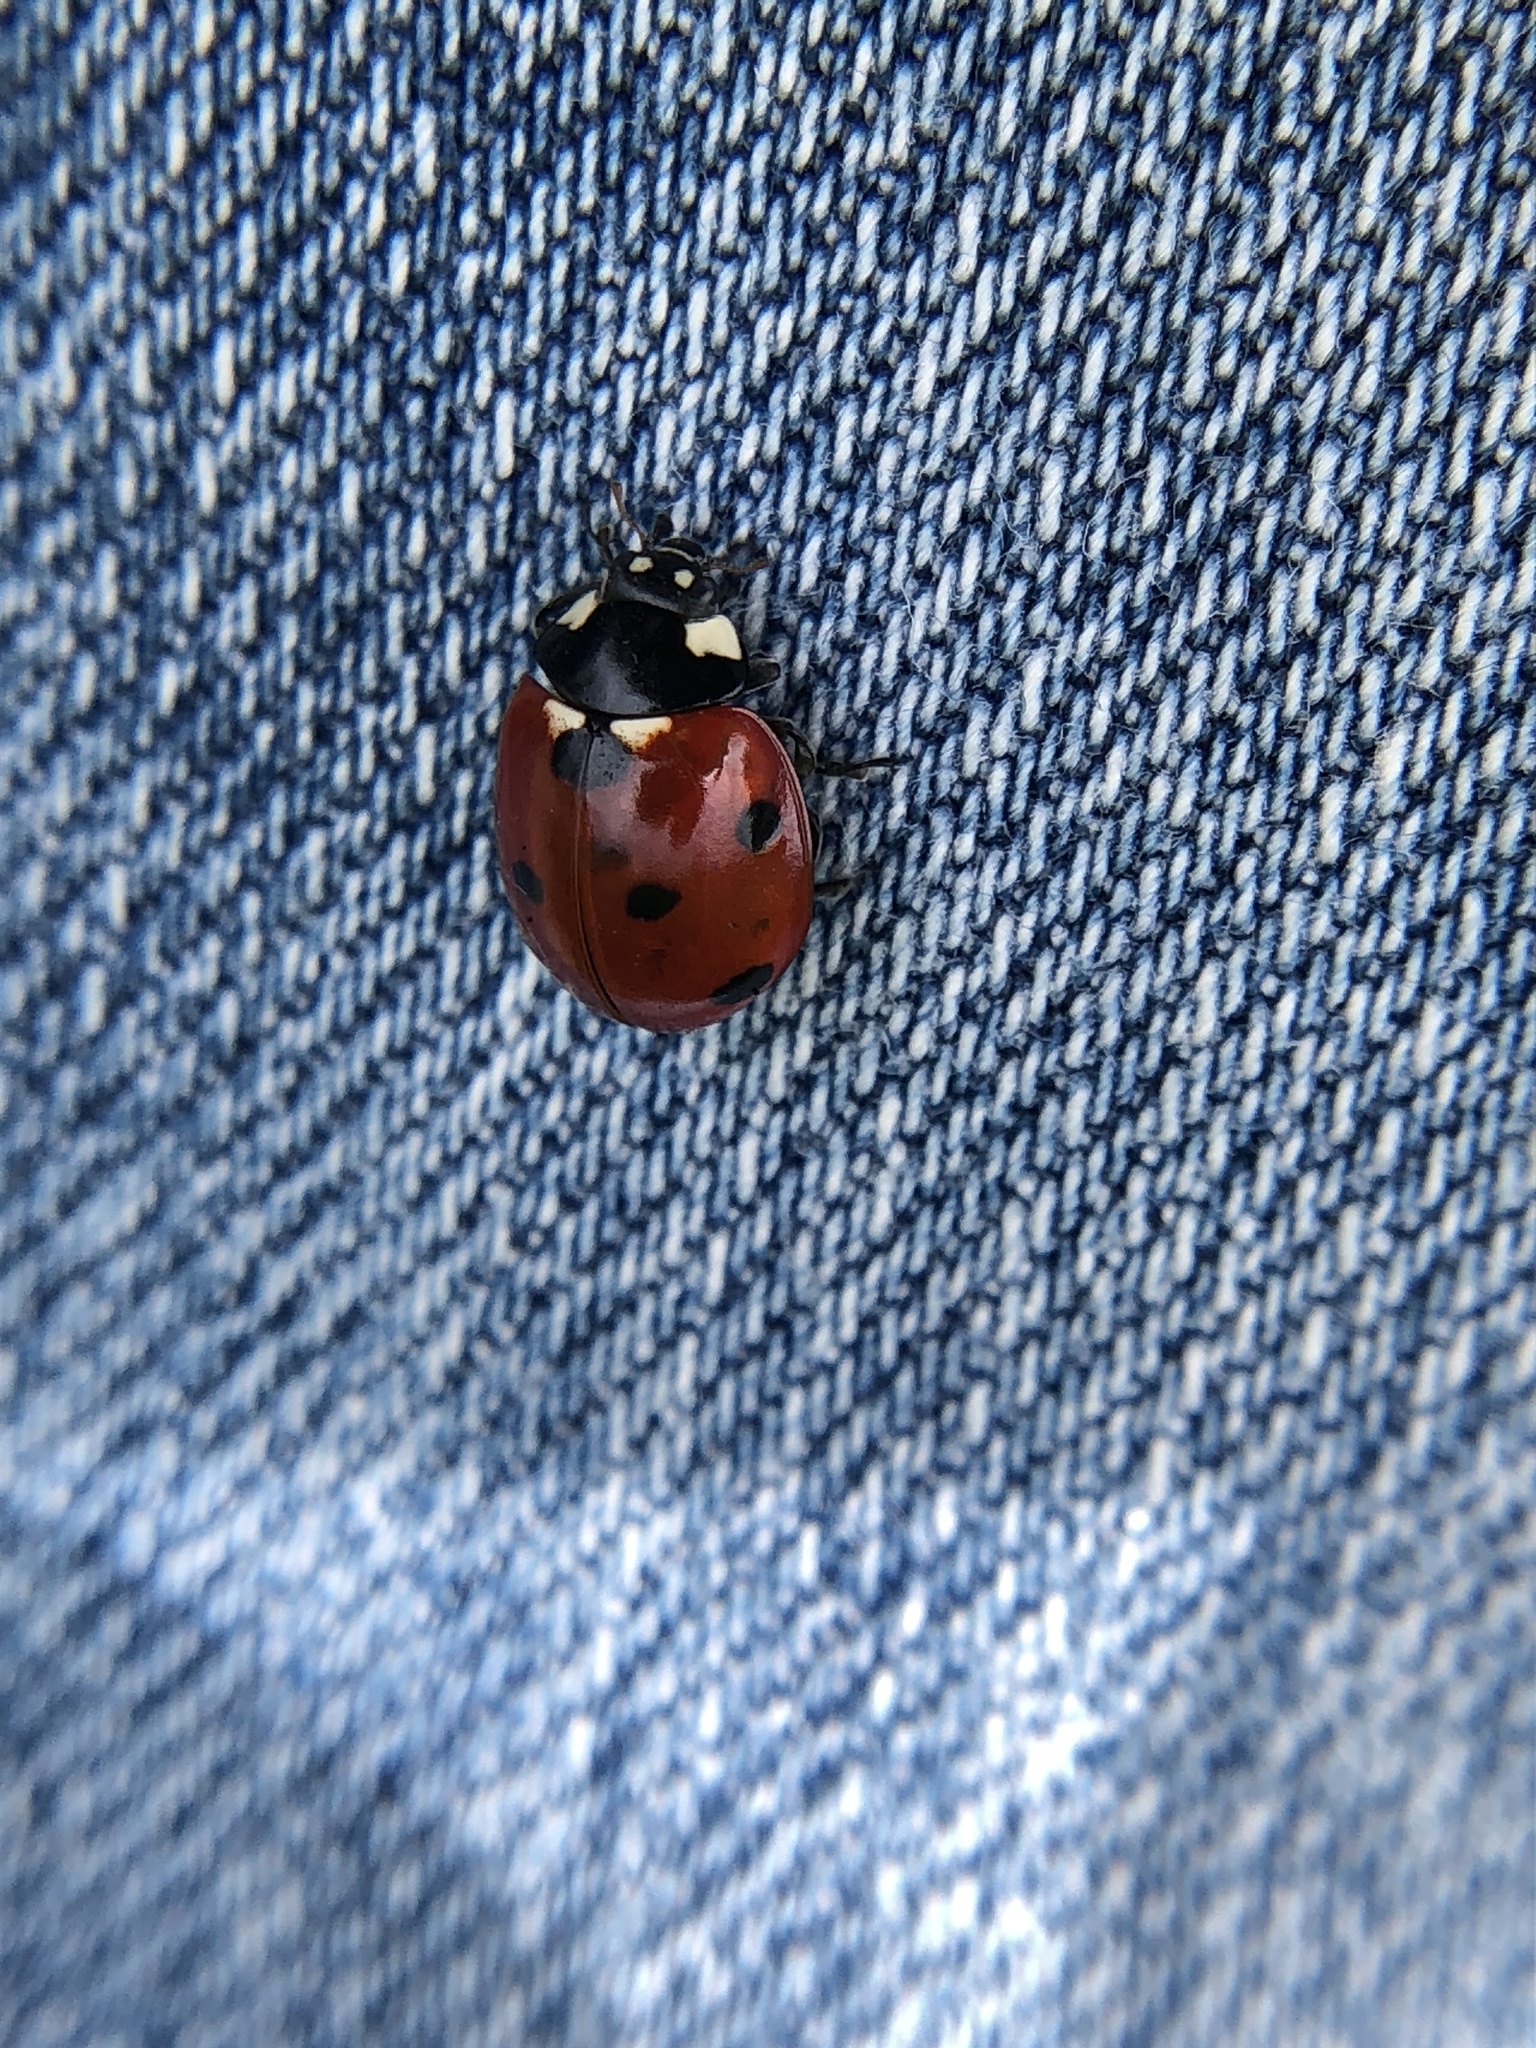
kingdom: Animalia
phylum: Arthropoda
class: Insecta
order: Coleoptera
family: Coccinellidae
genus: Coccinella
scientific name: Coccinella septempunctata
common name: Sevenspotted lady beetle
